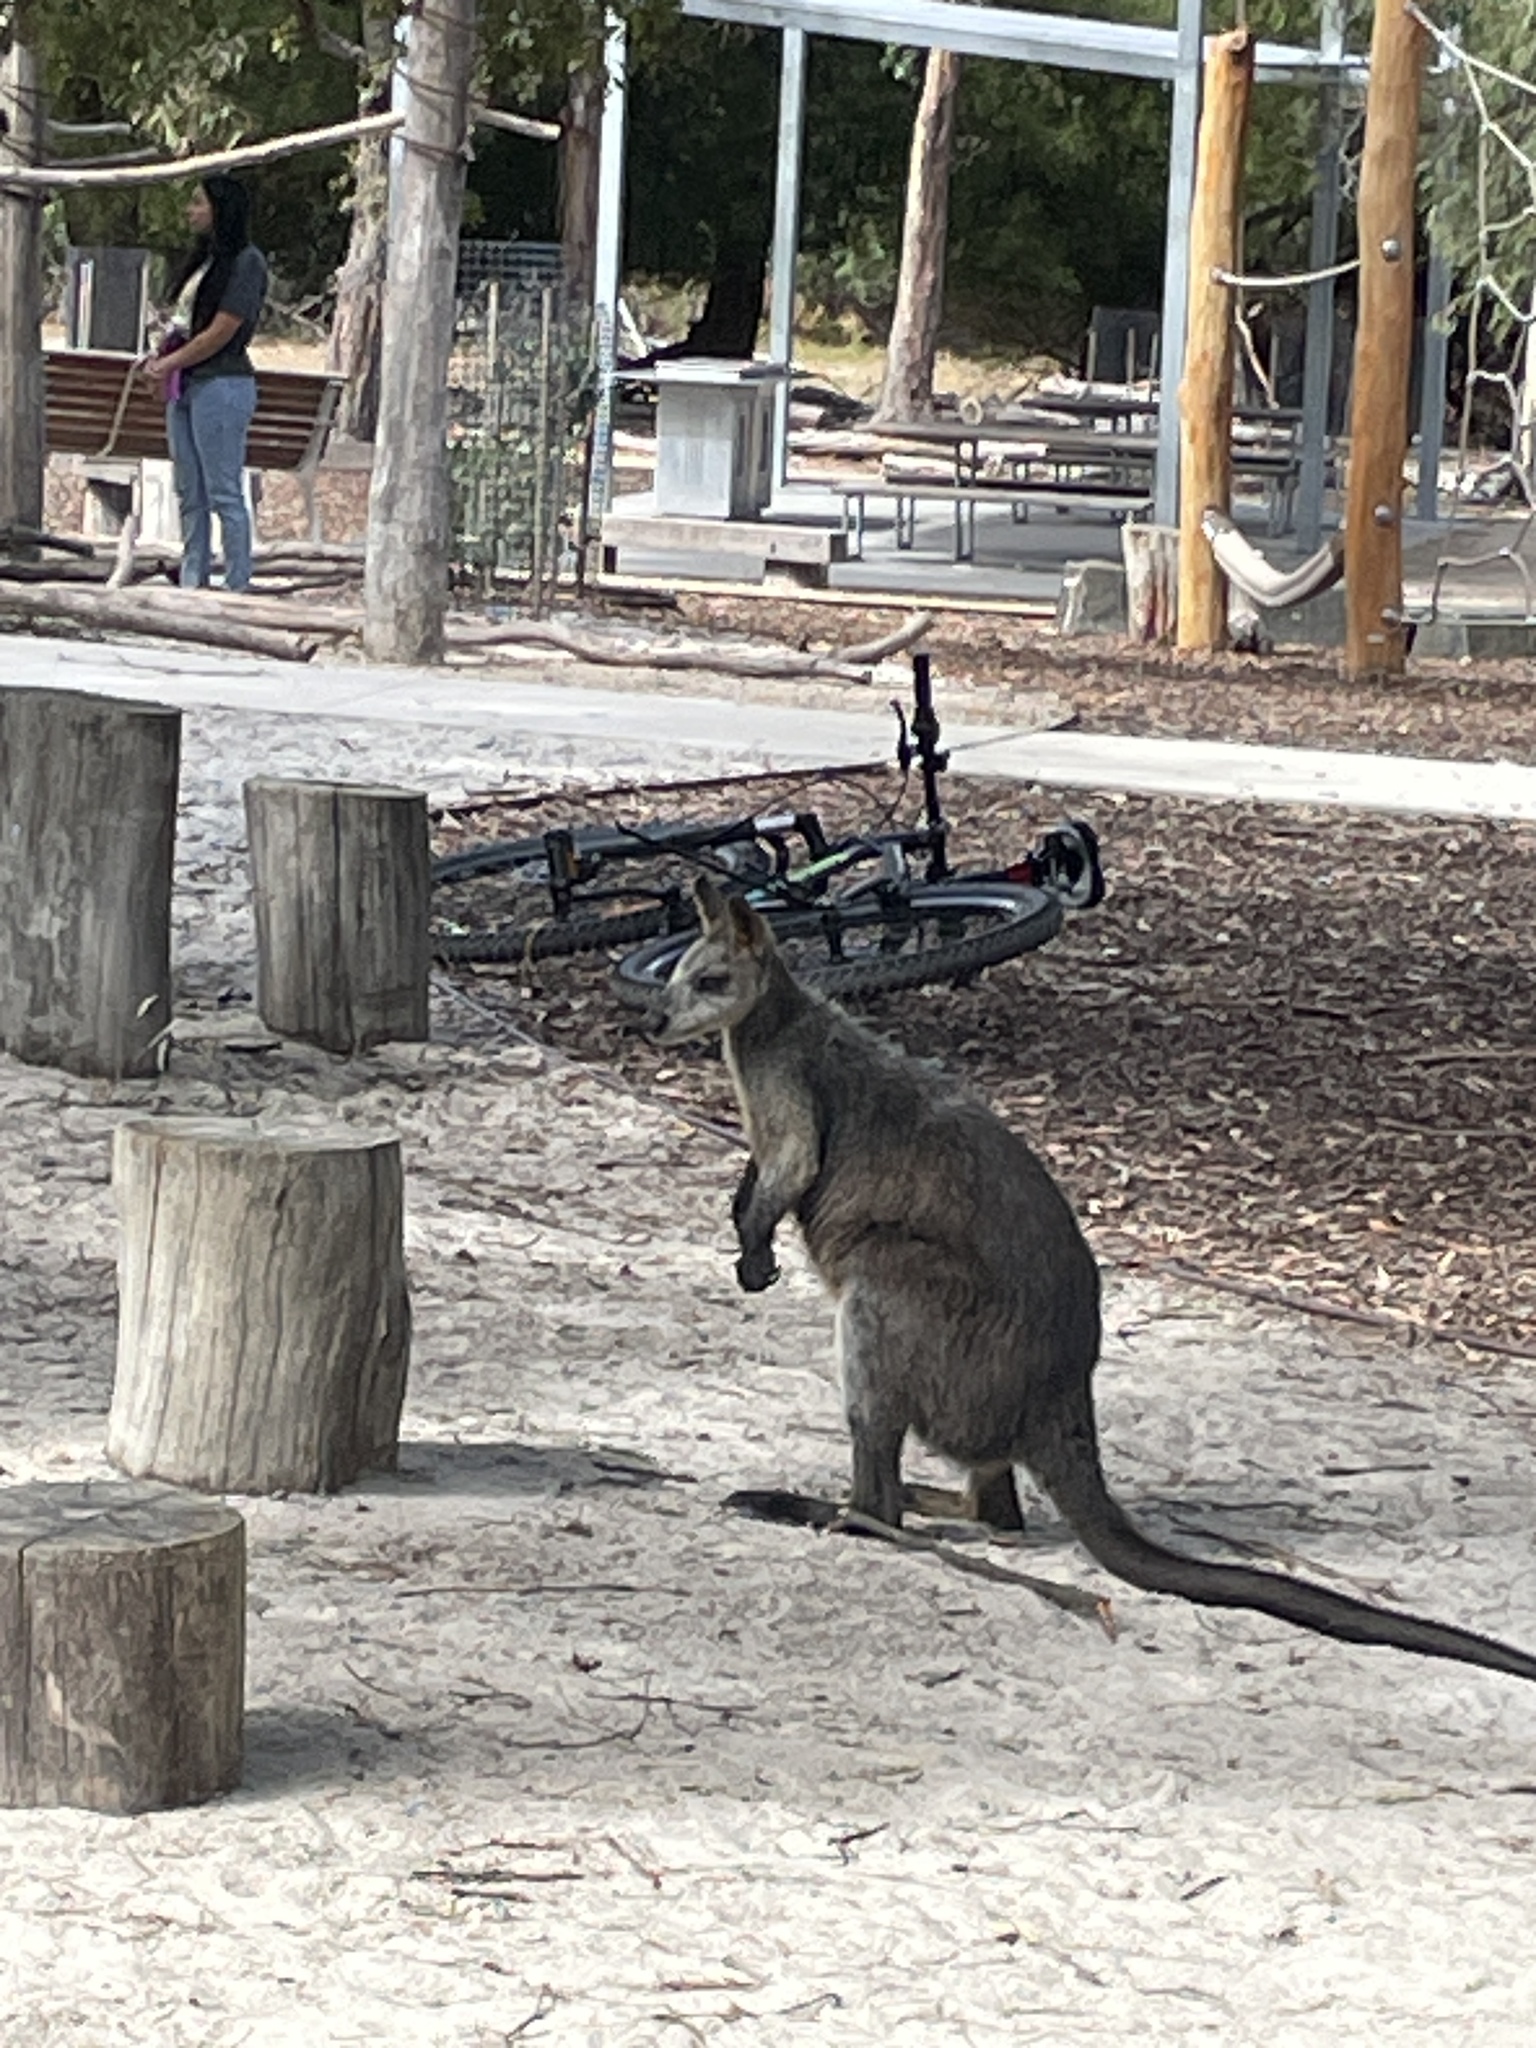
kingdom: Animalia
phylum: Chordata
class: Mammalia
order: Diprotodontia
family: Macropodidae
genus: Wallabia
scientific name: Wallabia bicolor
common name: Swamp wallaby
